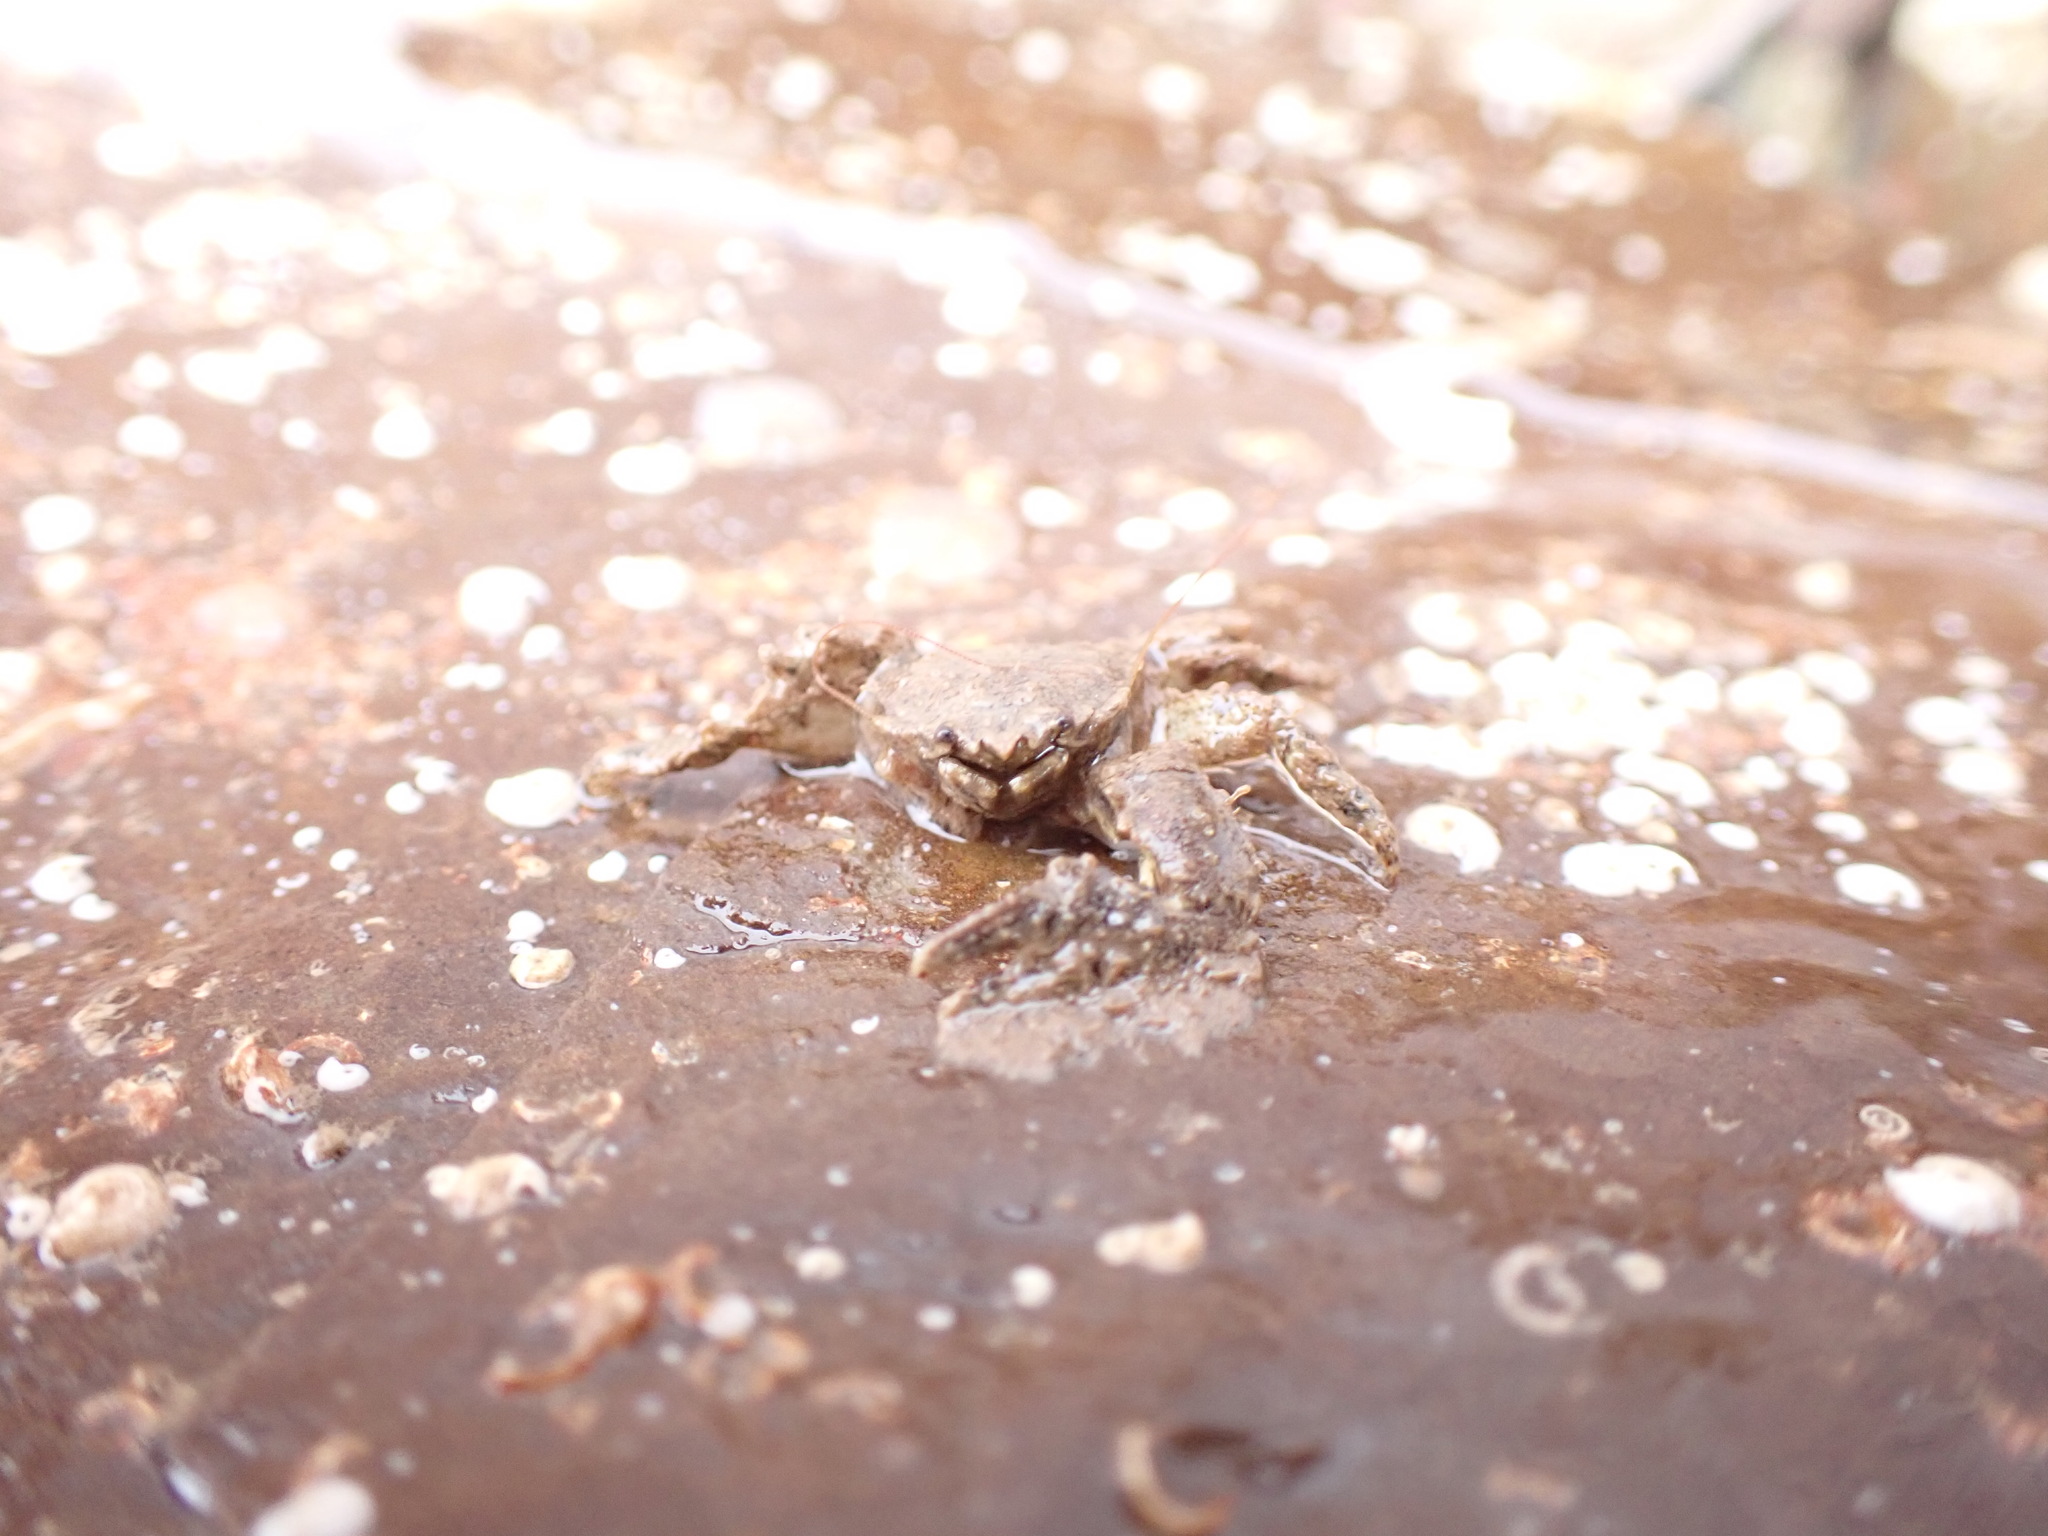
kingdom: Animalia
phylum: Arthropoda
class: Malacostraca
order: Decapoda
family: Porcellanidae
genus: Porcellana
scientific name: Porcellana platycheles
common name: Porcelain crab
